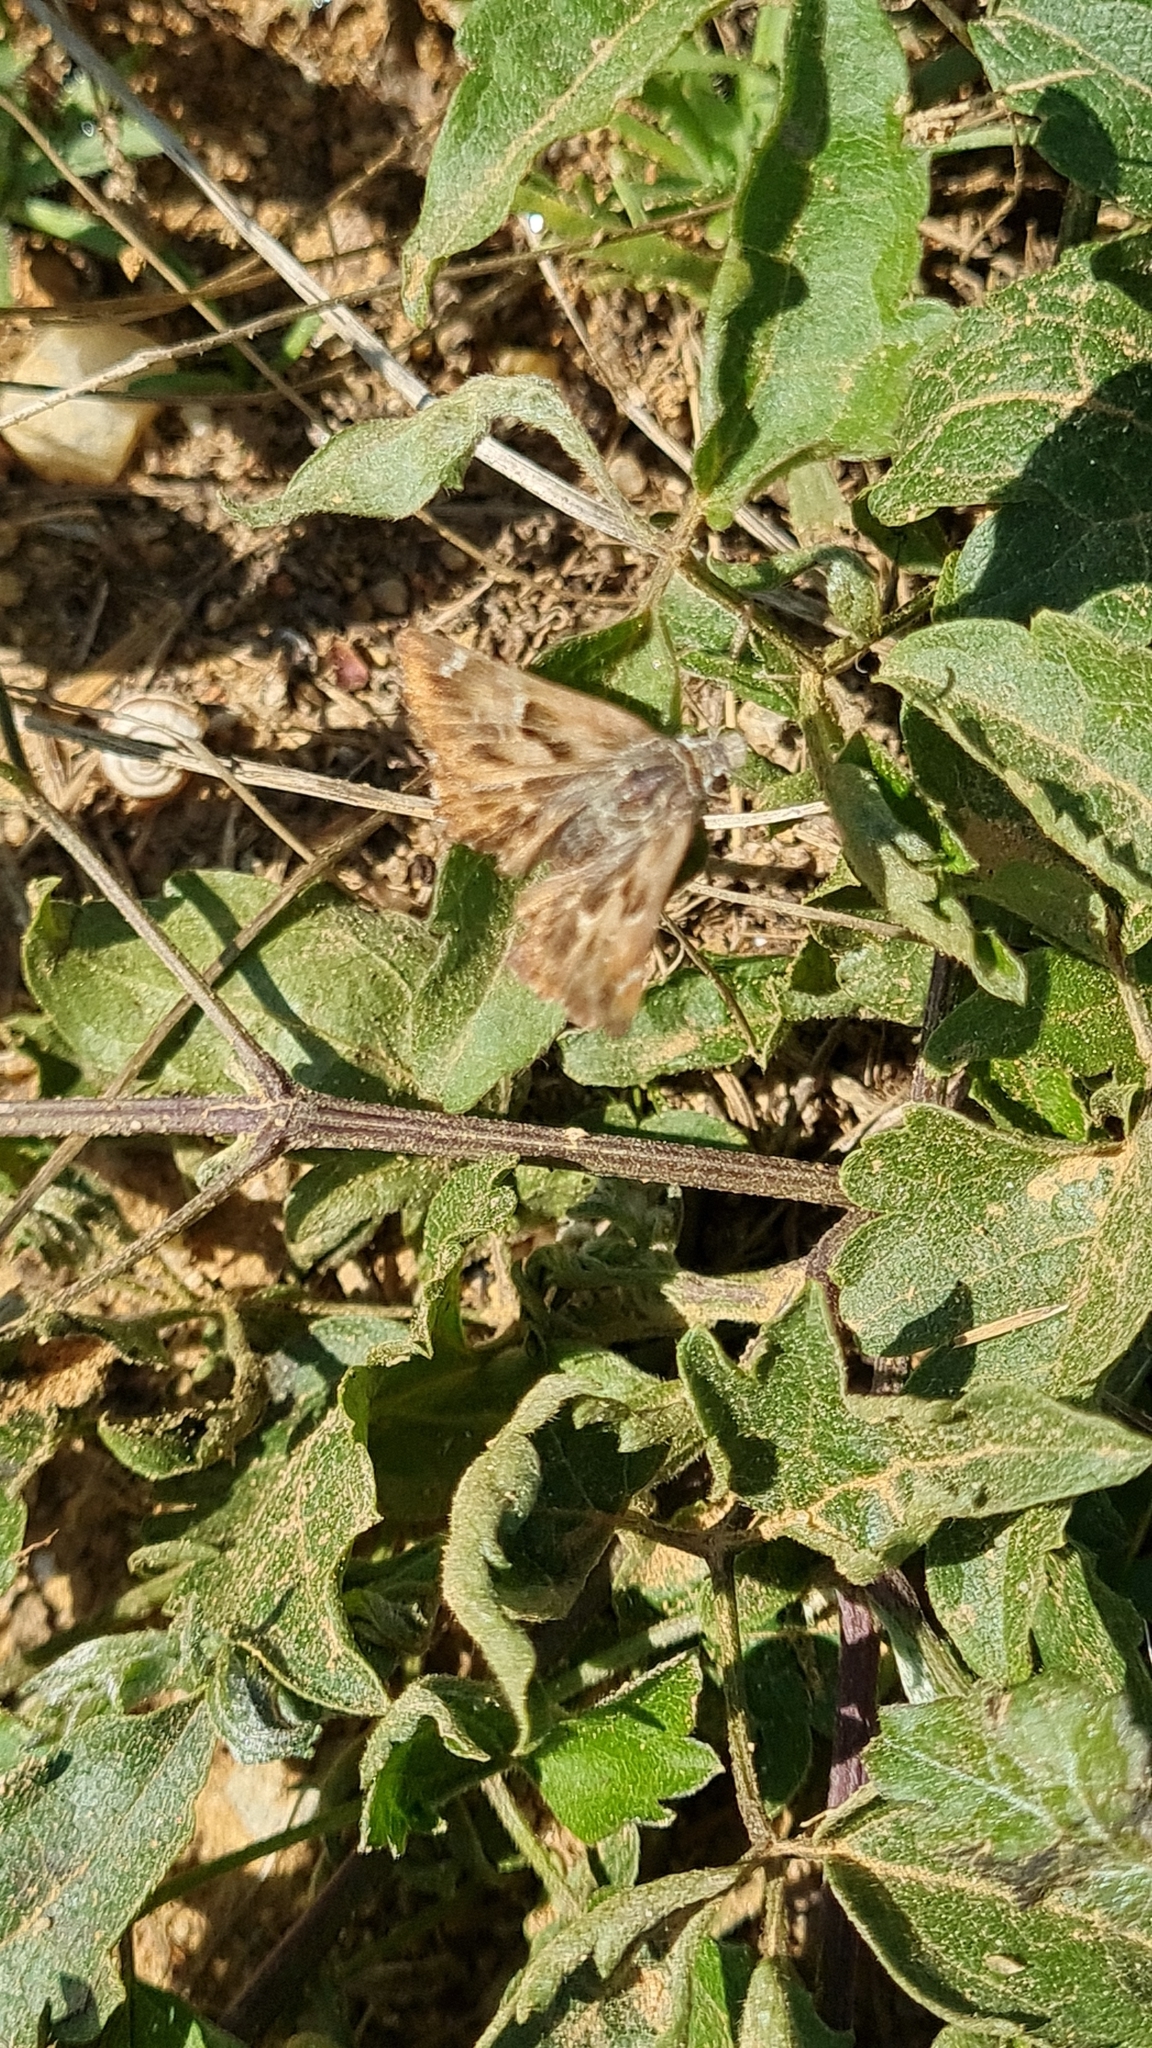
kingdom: Animalia
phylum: Arthropoda
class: Insecta
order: Lepidoptera
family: Hesperiidae
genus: Carcharodus
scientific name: Carcharodus alceae
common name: Mallow skipper
